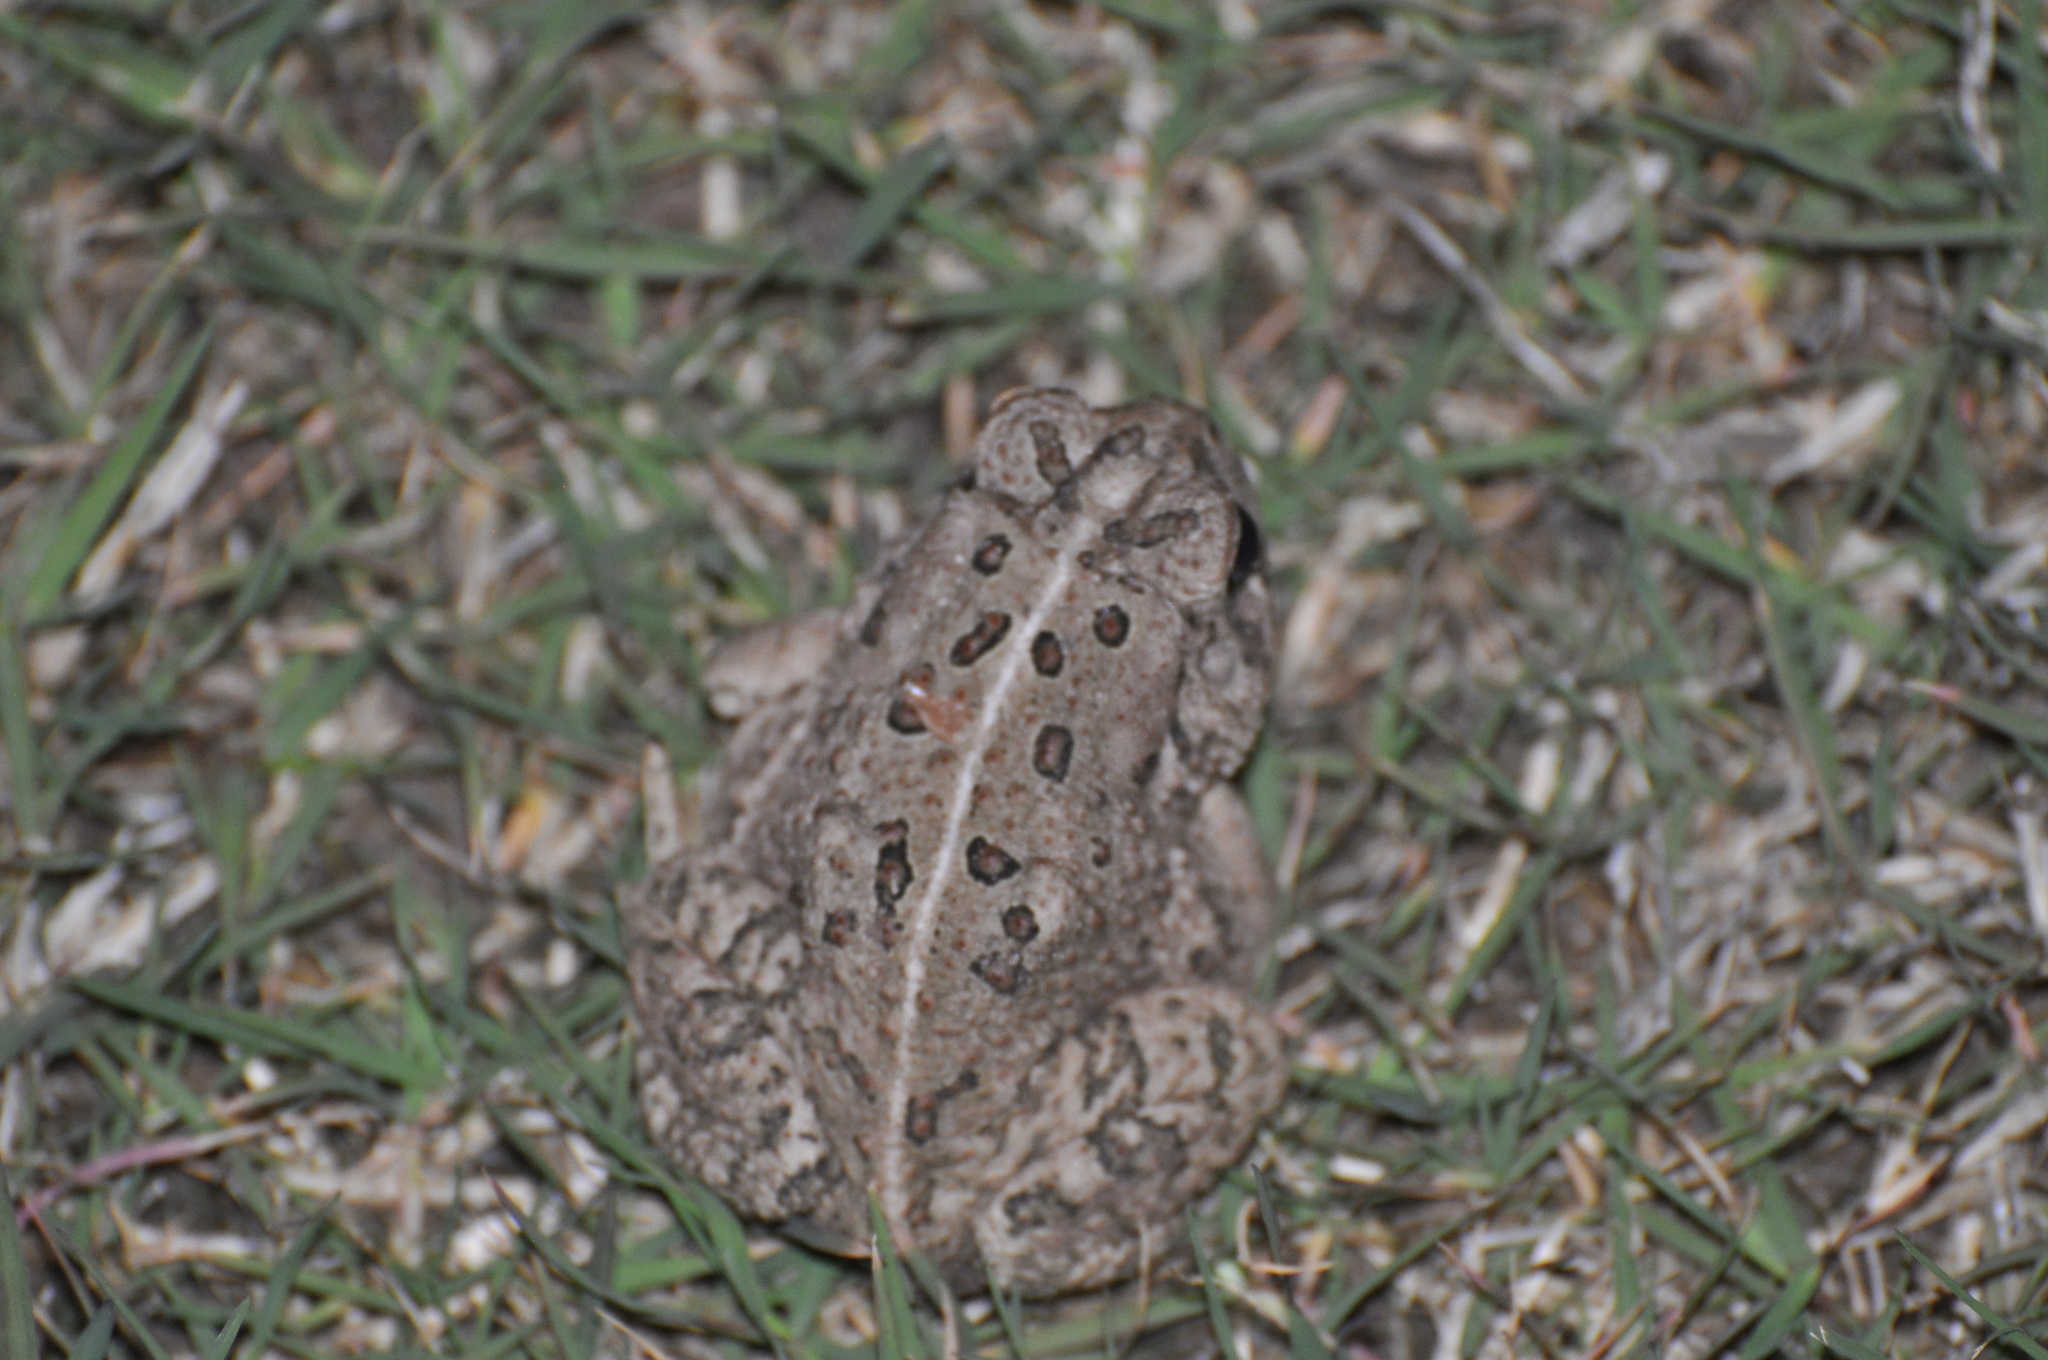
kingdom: Animalia
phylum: Chordata
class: Amphibia
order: Anura
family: Bufonidae
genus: Anaxyrus
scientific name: Anaxyrus woodhousii
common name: Woodhouse's toad
